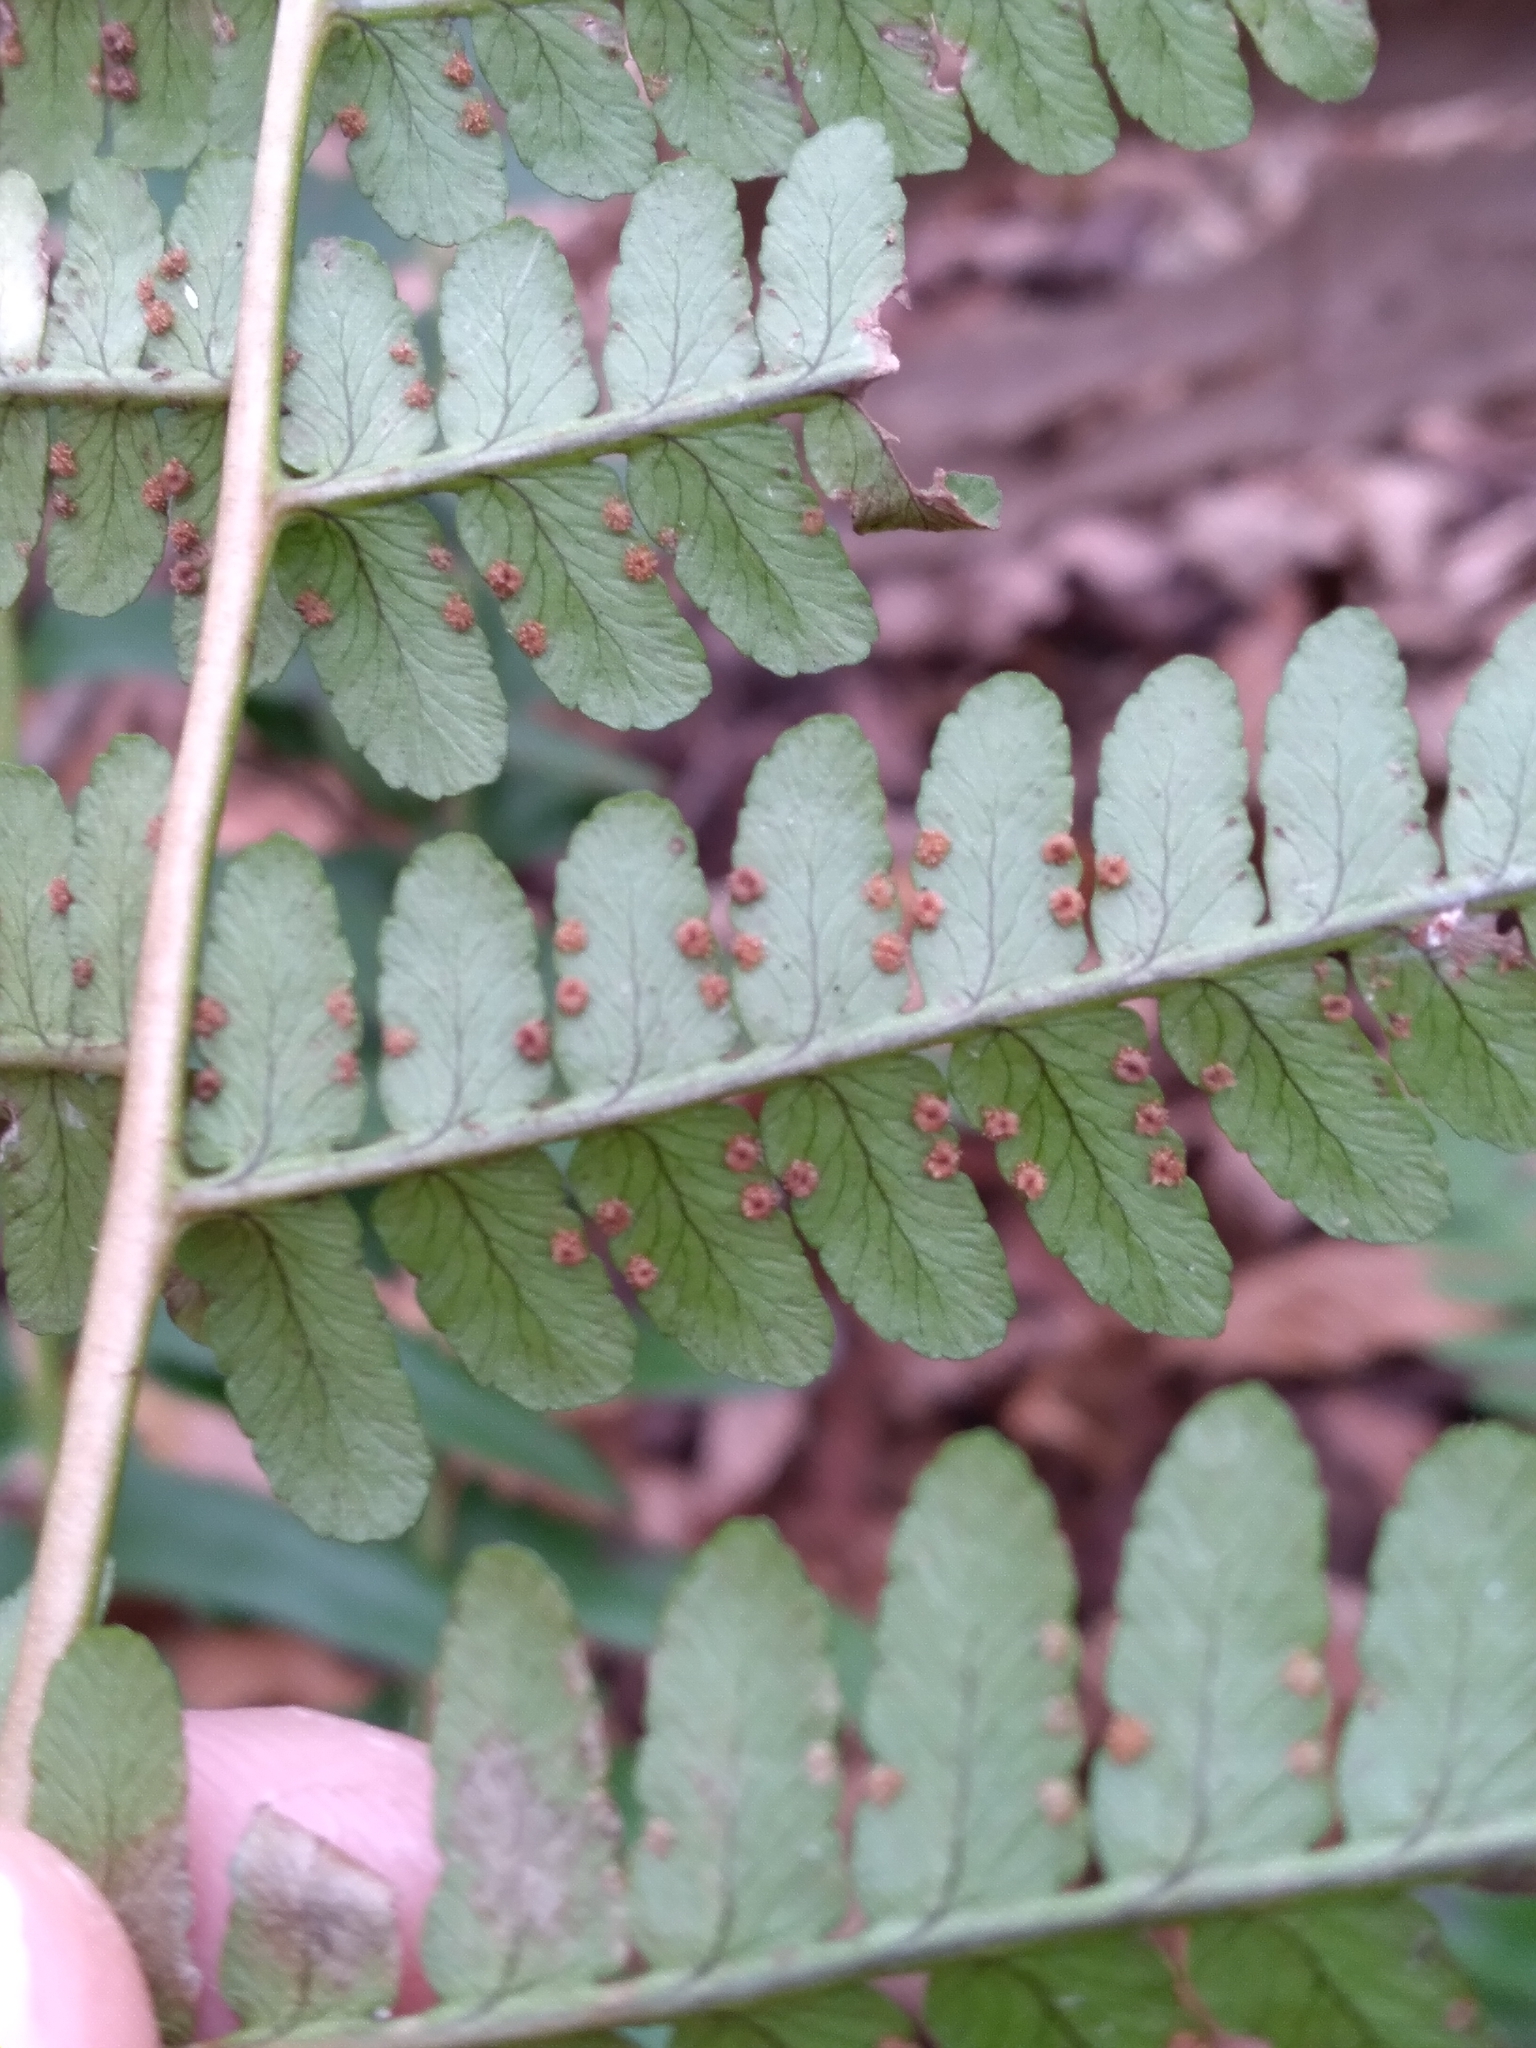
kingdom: Plantae
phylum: Tracheophyta
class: Polypodiopsida
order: Polypodiales
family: Dryopteridaceae
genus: Dryopteris
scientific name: Dryopteris marginalis
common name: Marginal wood fern
